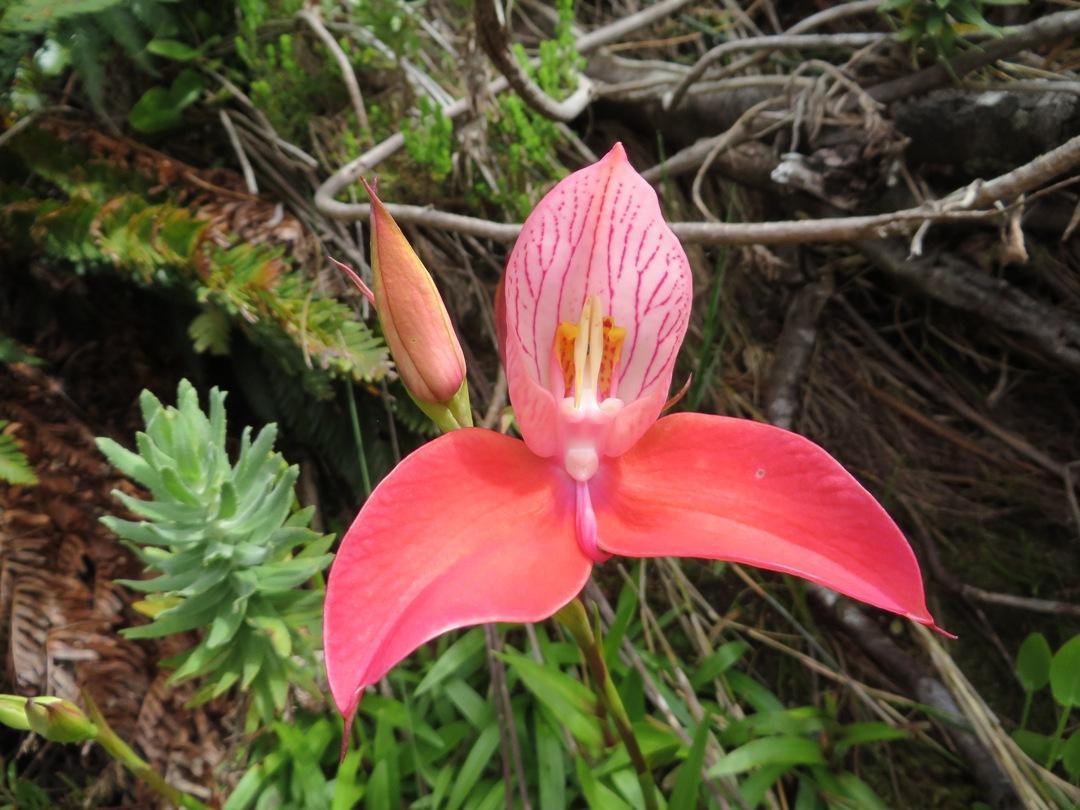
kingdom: Plantae
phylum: Tracheophyta
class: Liliopsida
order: Asparagales
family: Orchidaceae
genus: Disa
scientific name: Disa uniflora
